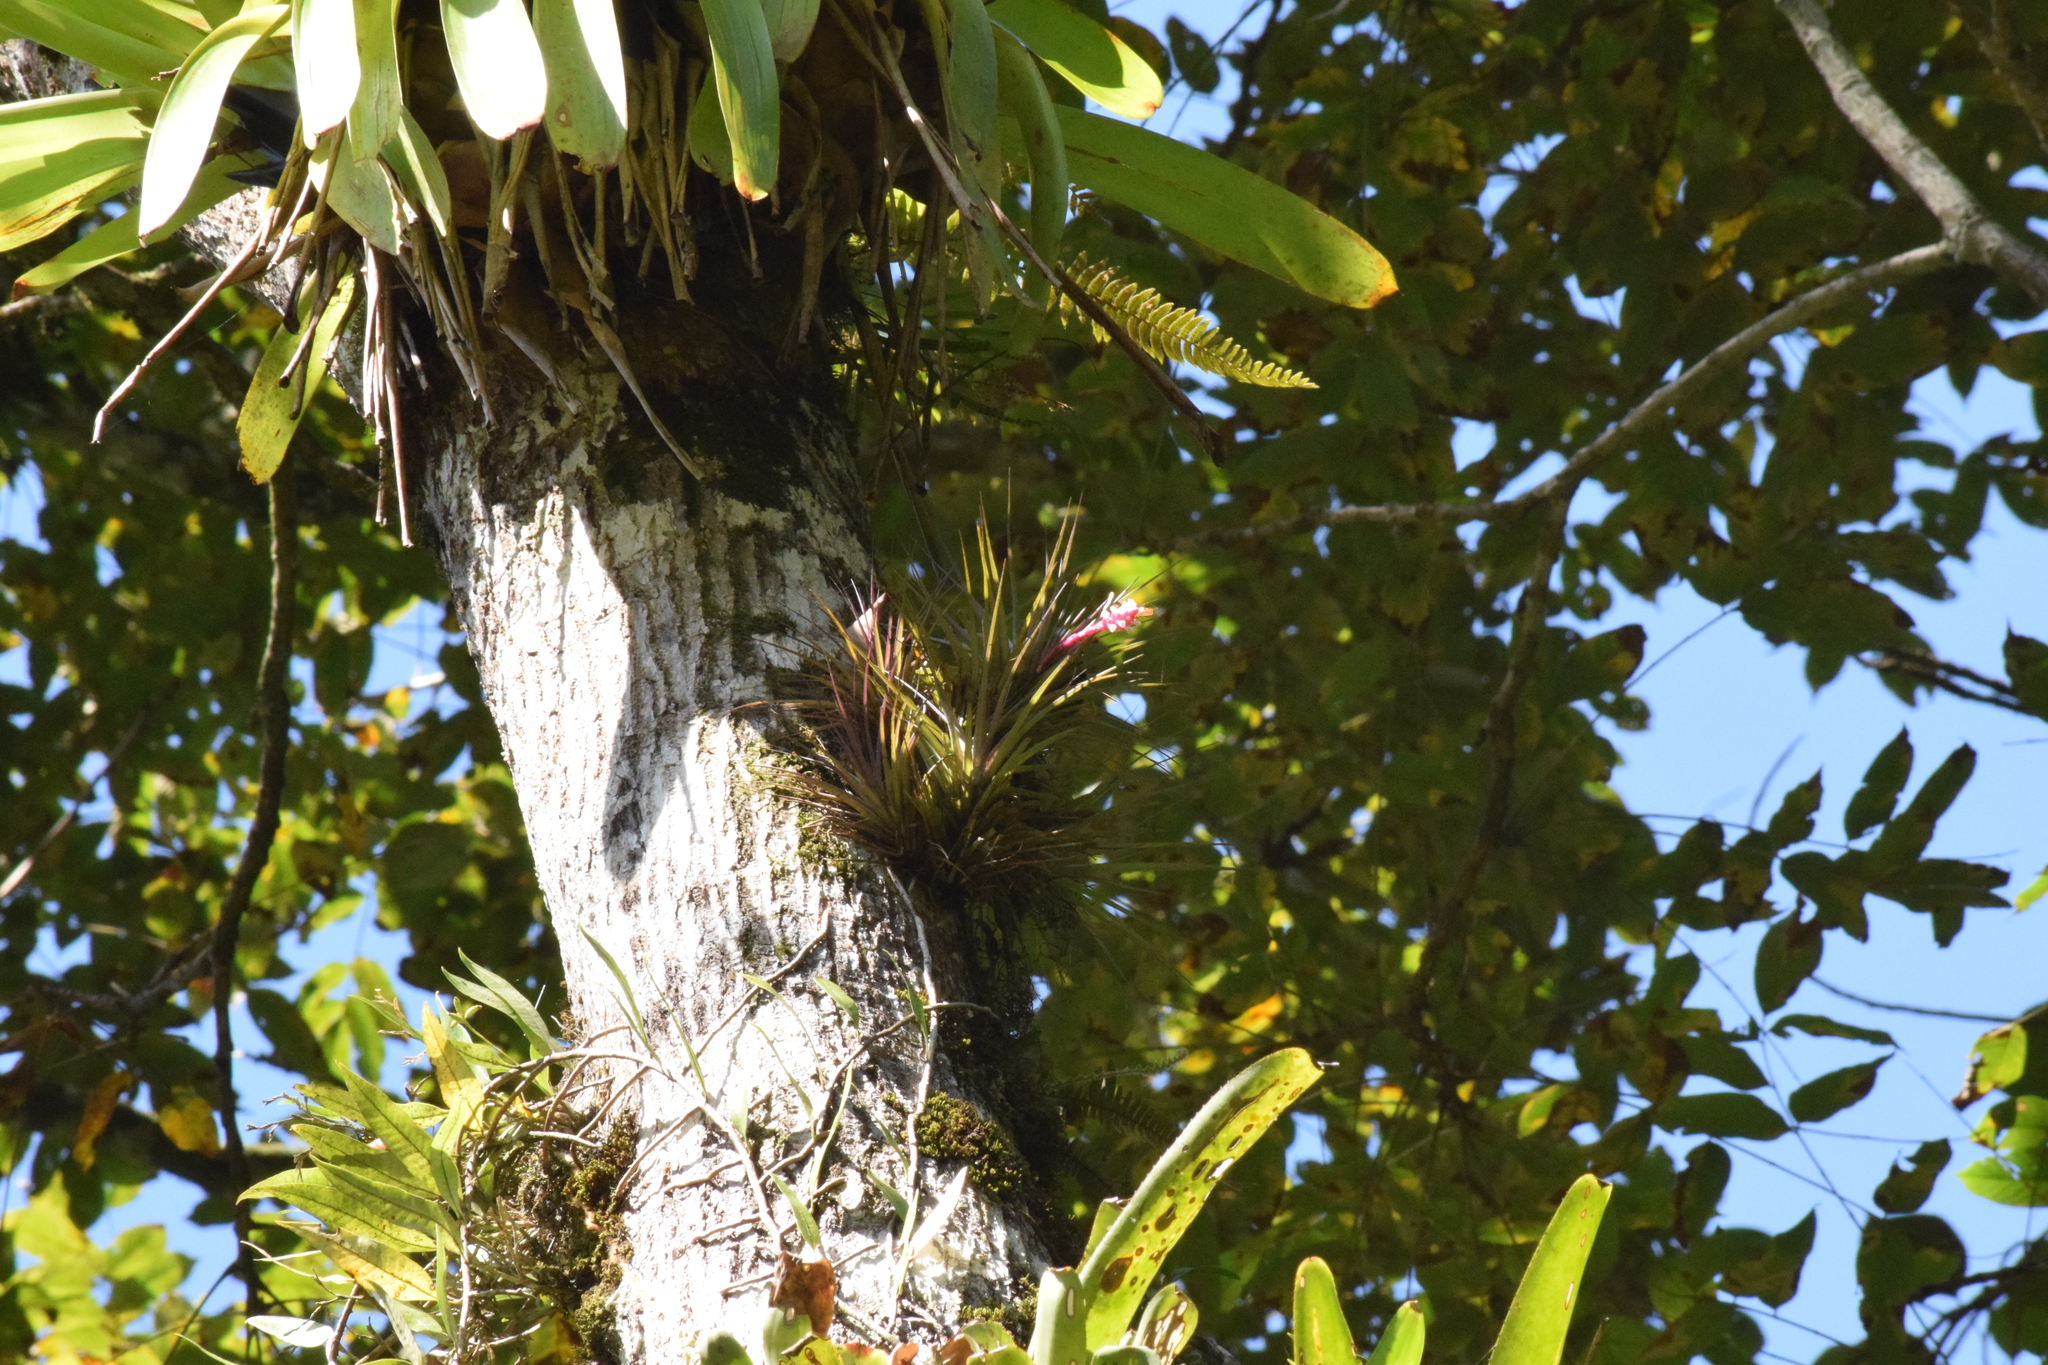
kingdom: Plantae
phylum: Tracheophyta
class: Liliopsida
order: Poales
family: Bromeliaceae
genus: Tillandsia
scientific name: Tillandsia tenuifolia
